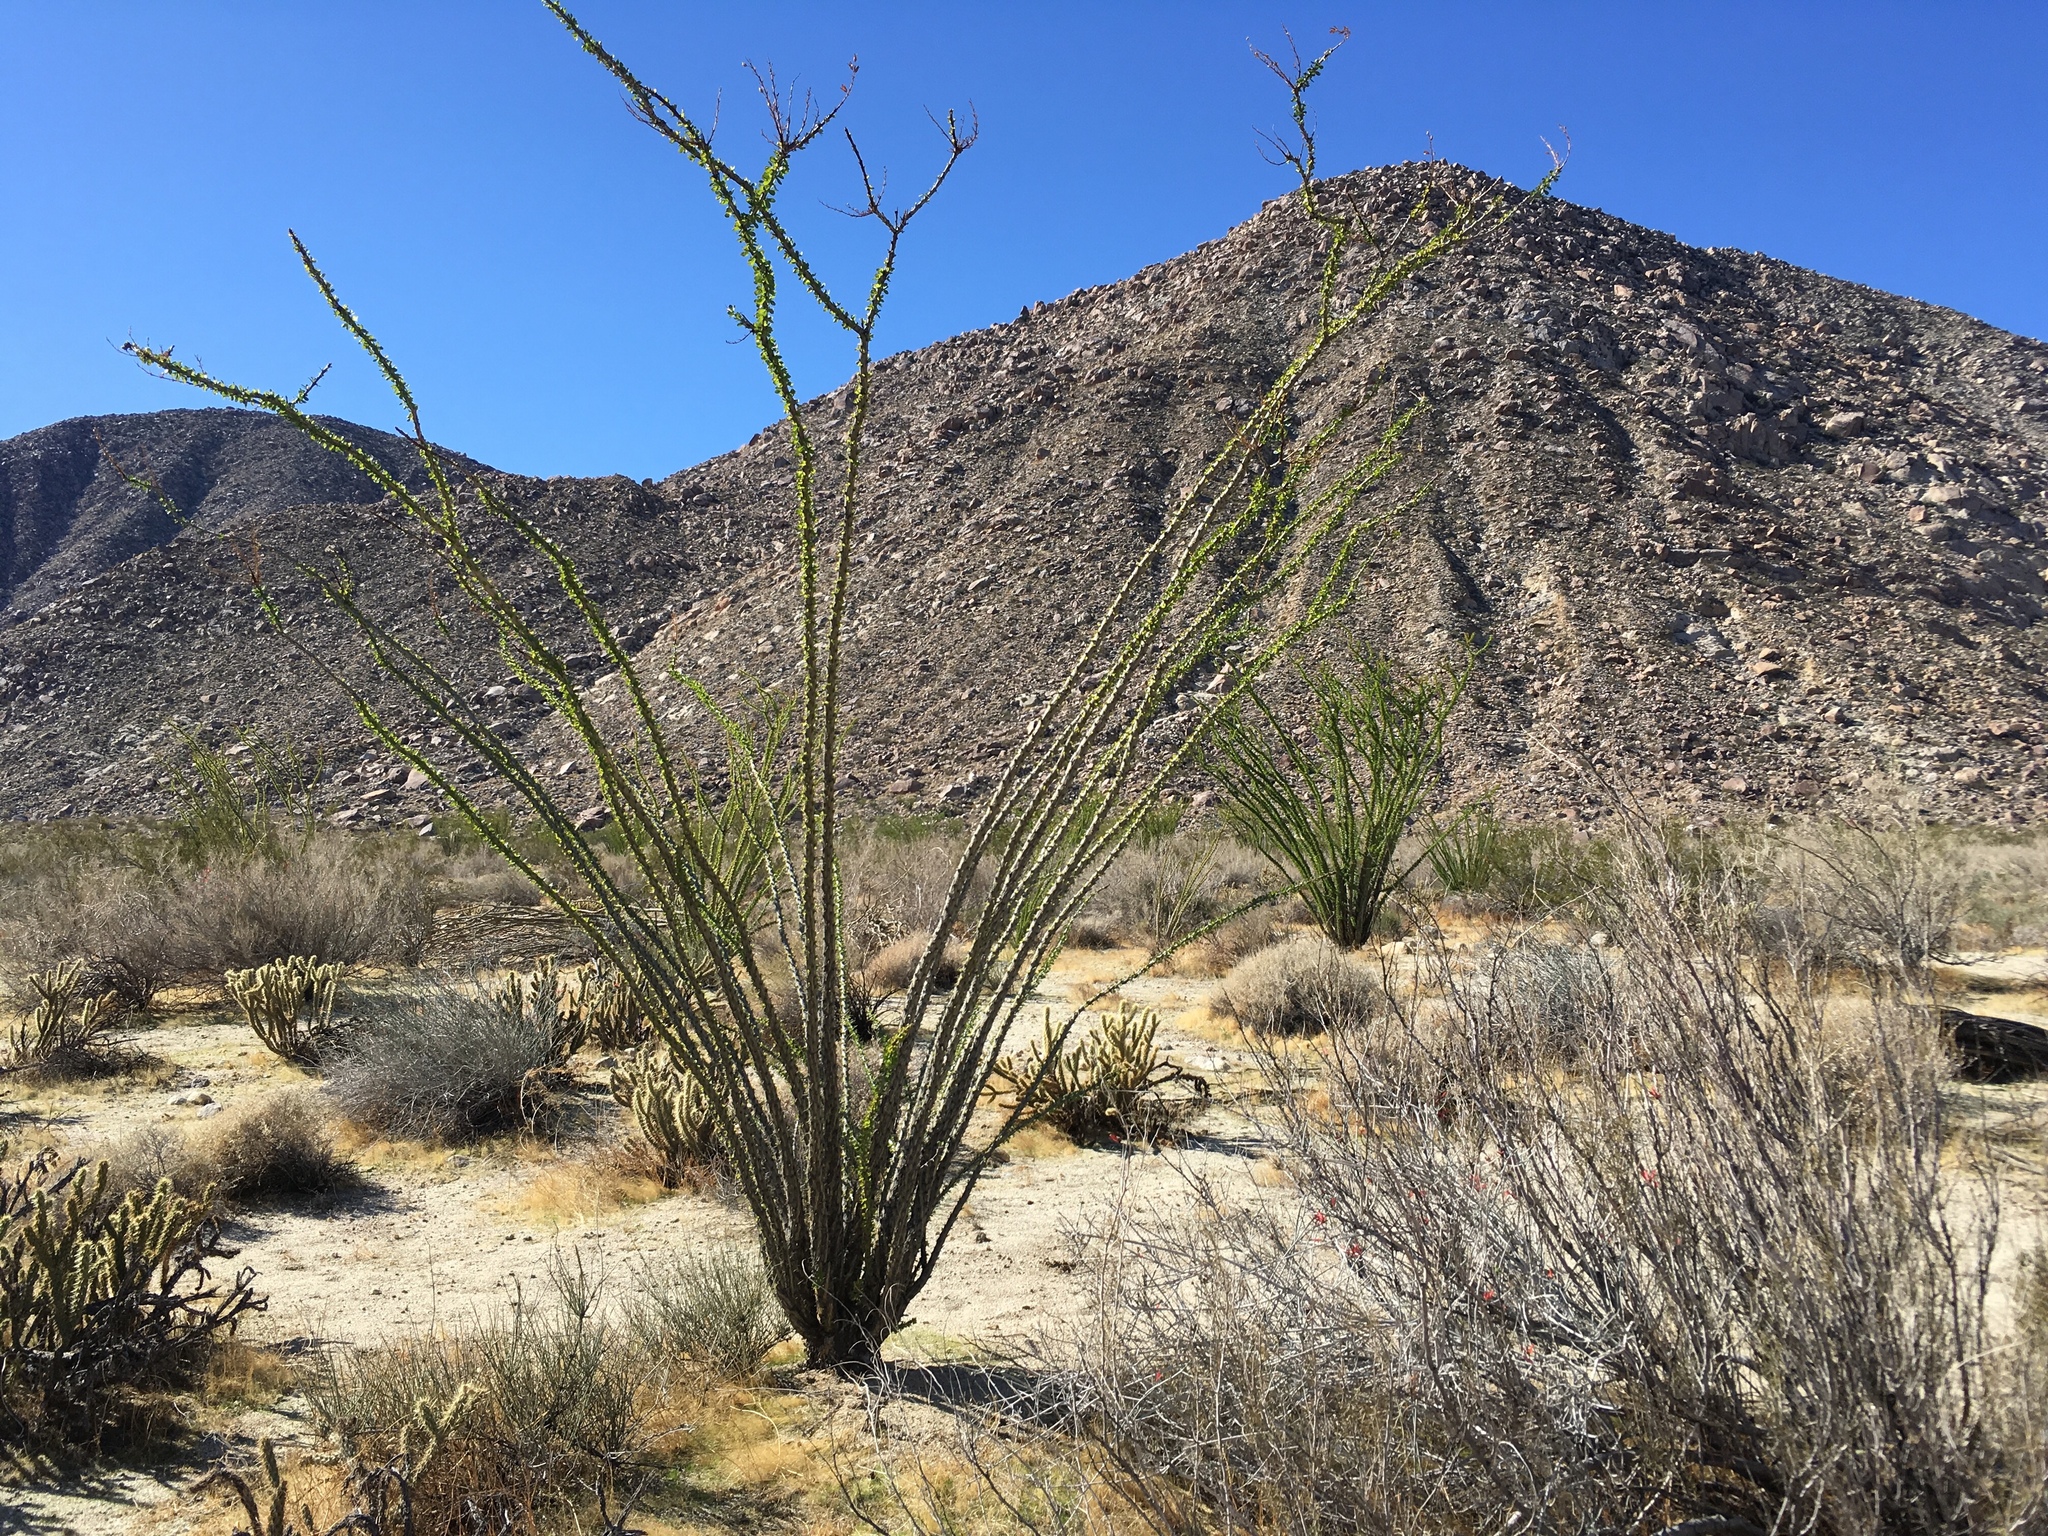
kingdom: Plantae
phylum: Tracheophyta
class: Magnoliopsida
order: Ericales
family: Fouquieriaceae
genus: Fouquieria
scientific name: Fouquieria splendens
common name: Vine-cactus
